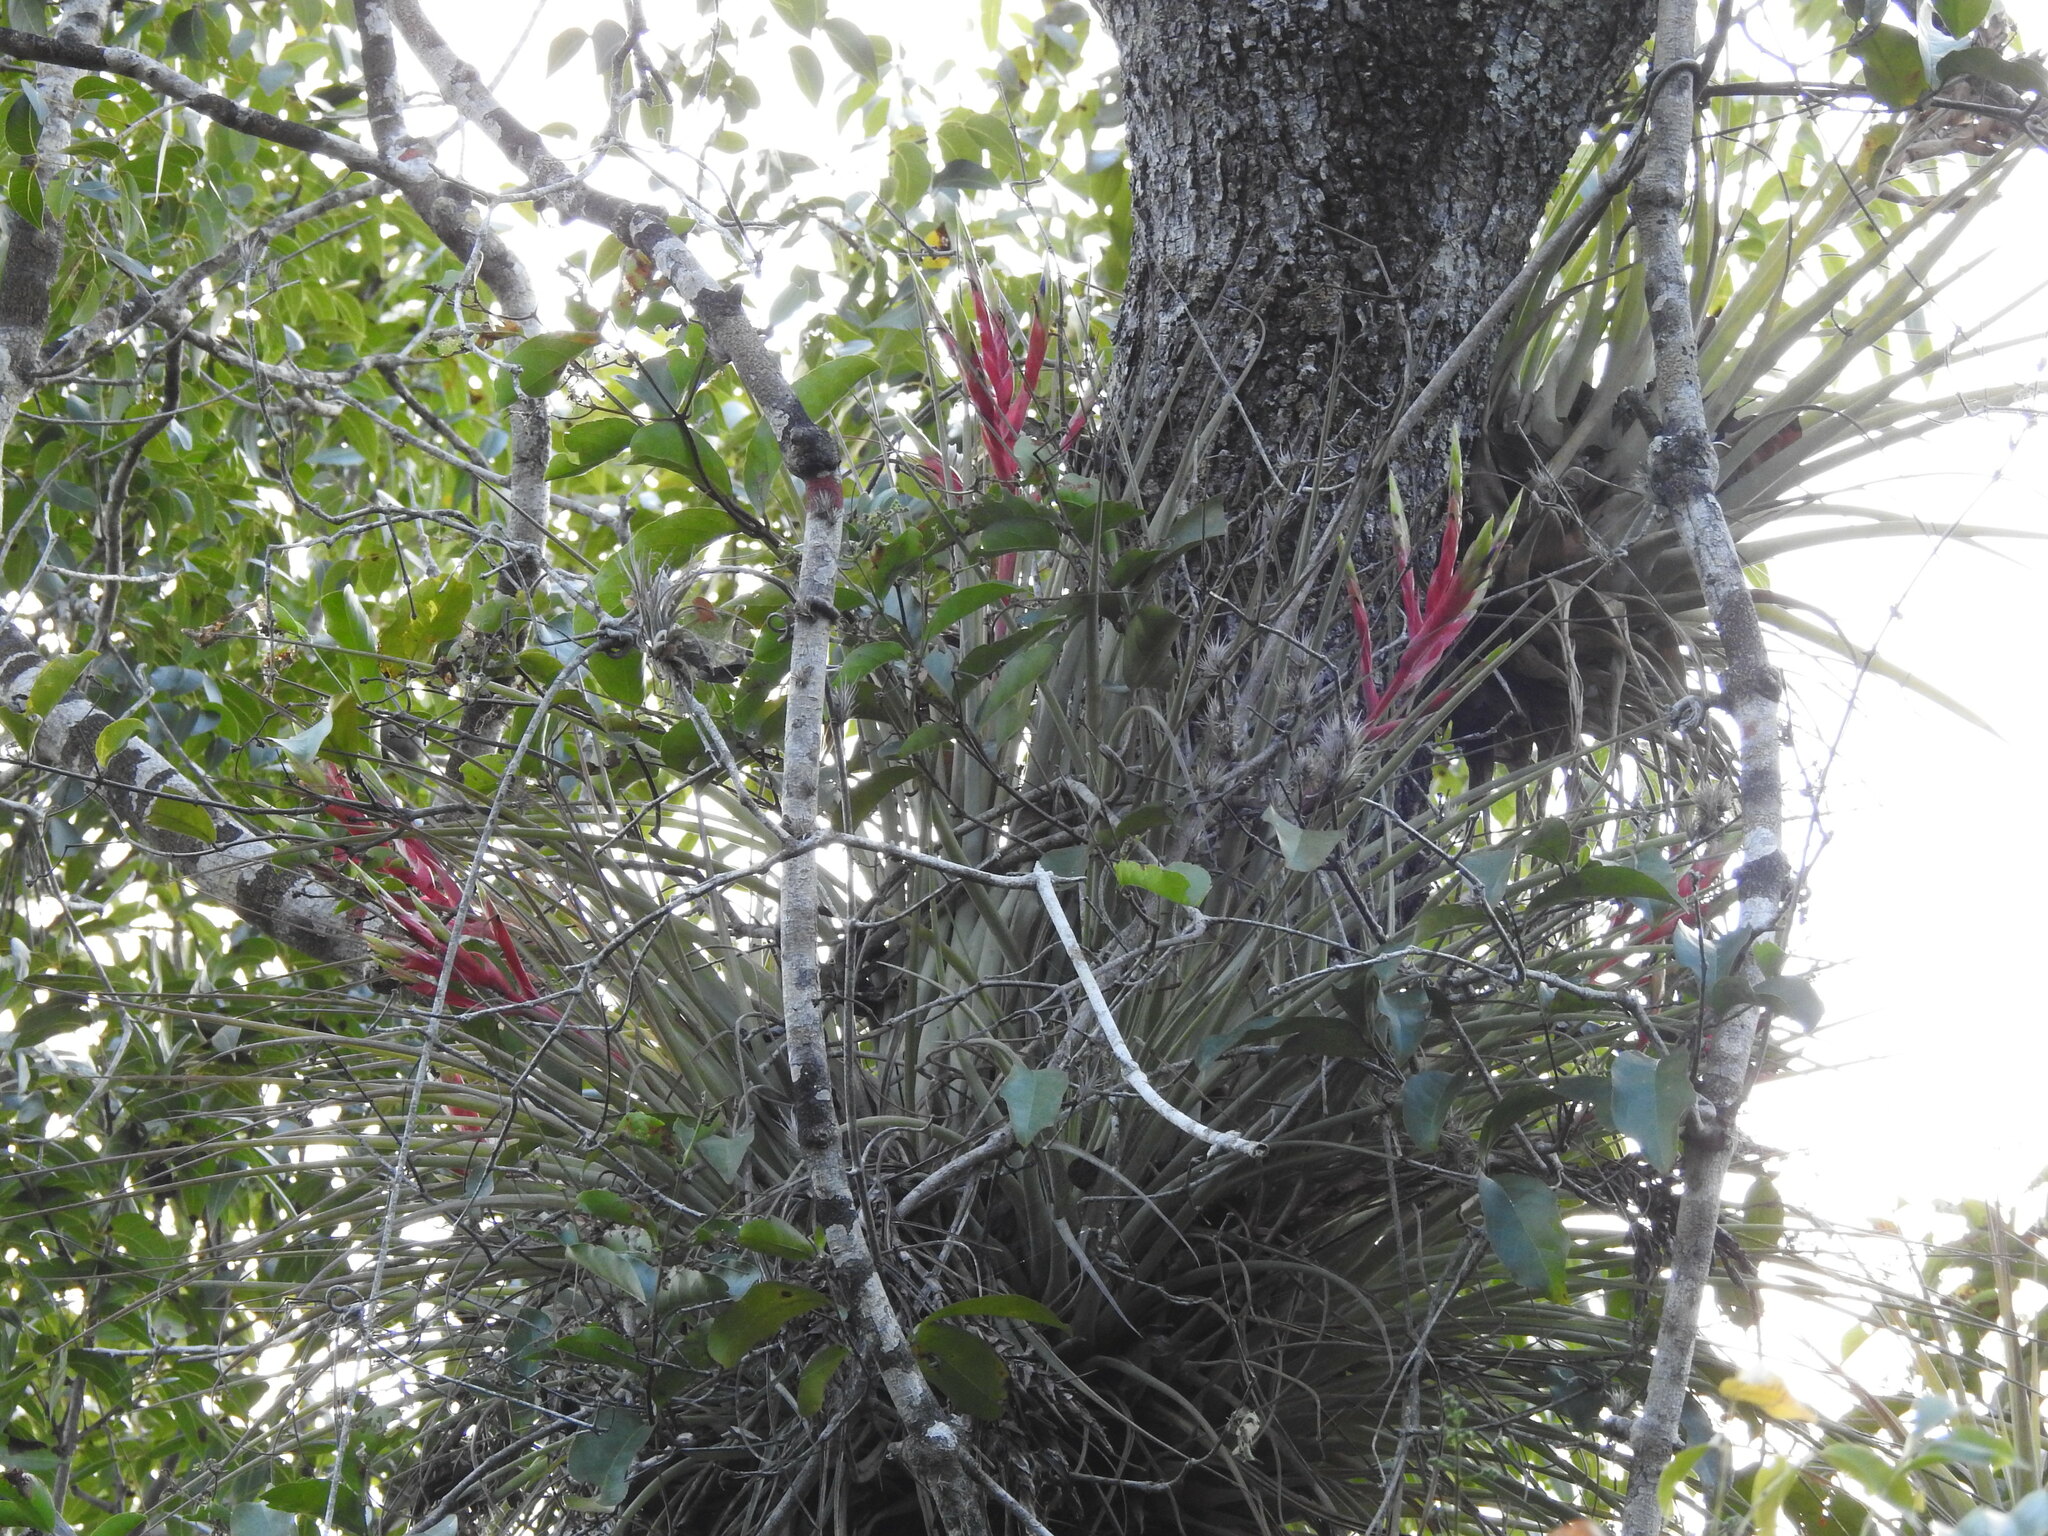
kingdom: Plantae
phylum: Tracheophyta
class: Liliopsida
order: Poales
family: Bromeliaceae
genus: Tillandsia
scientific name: Tillandsia fasciculata
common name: Giant airplant
